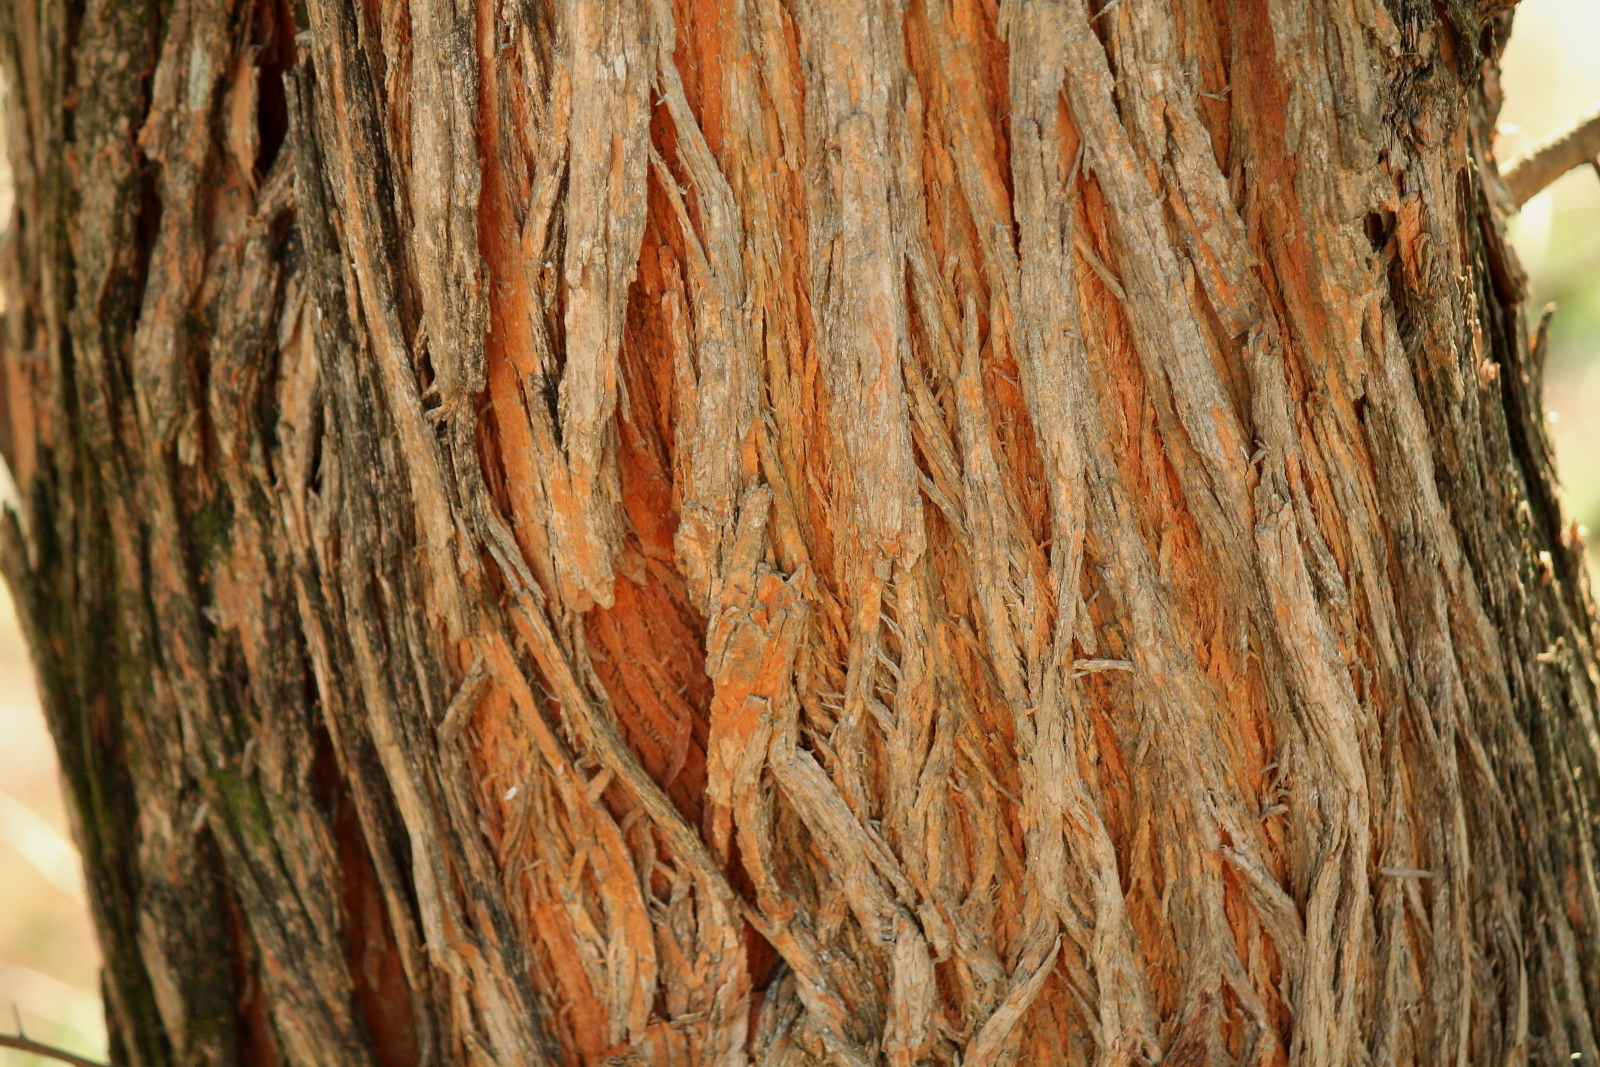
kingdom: Plantae
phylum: Tracheophyta
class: Magnoliopsida
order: Rosales
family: Moraceae
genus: Maclura
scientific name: Maclura pomifera
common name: Osage-orange
